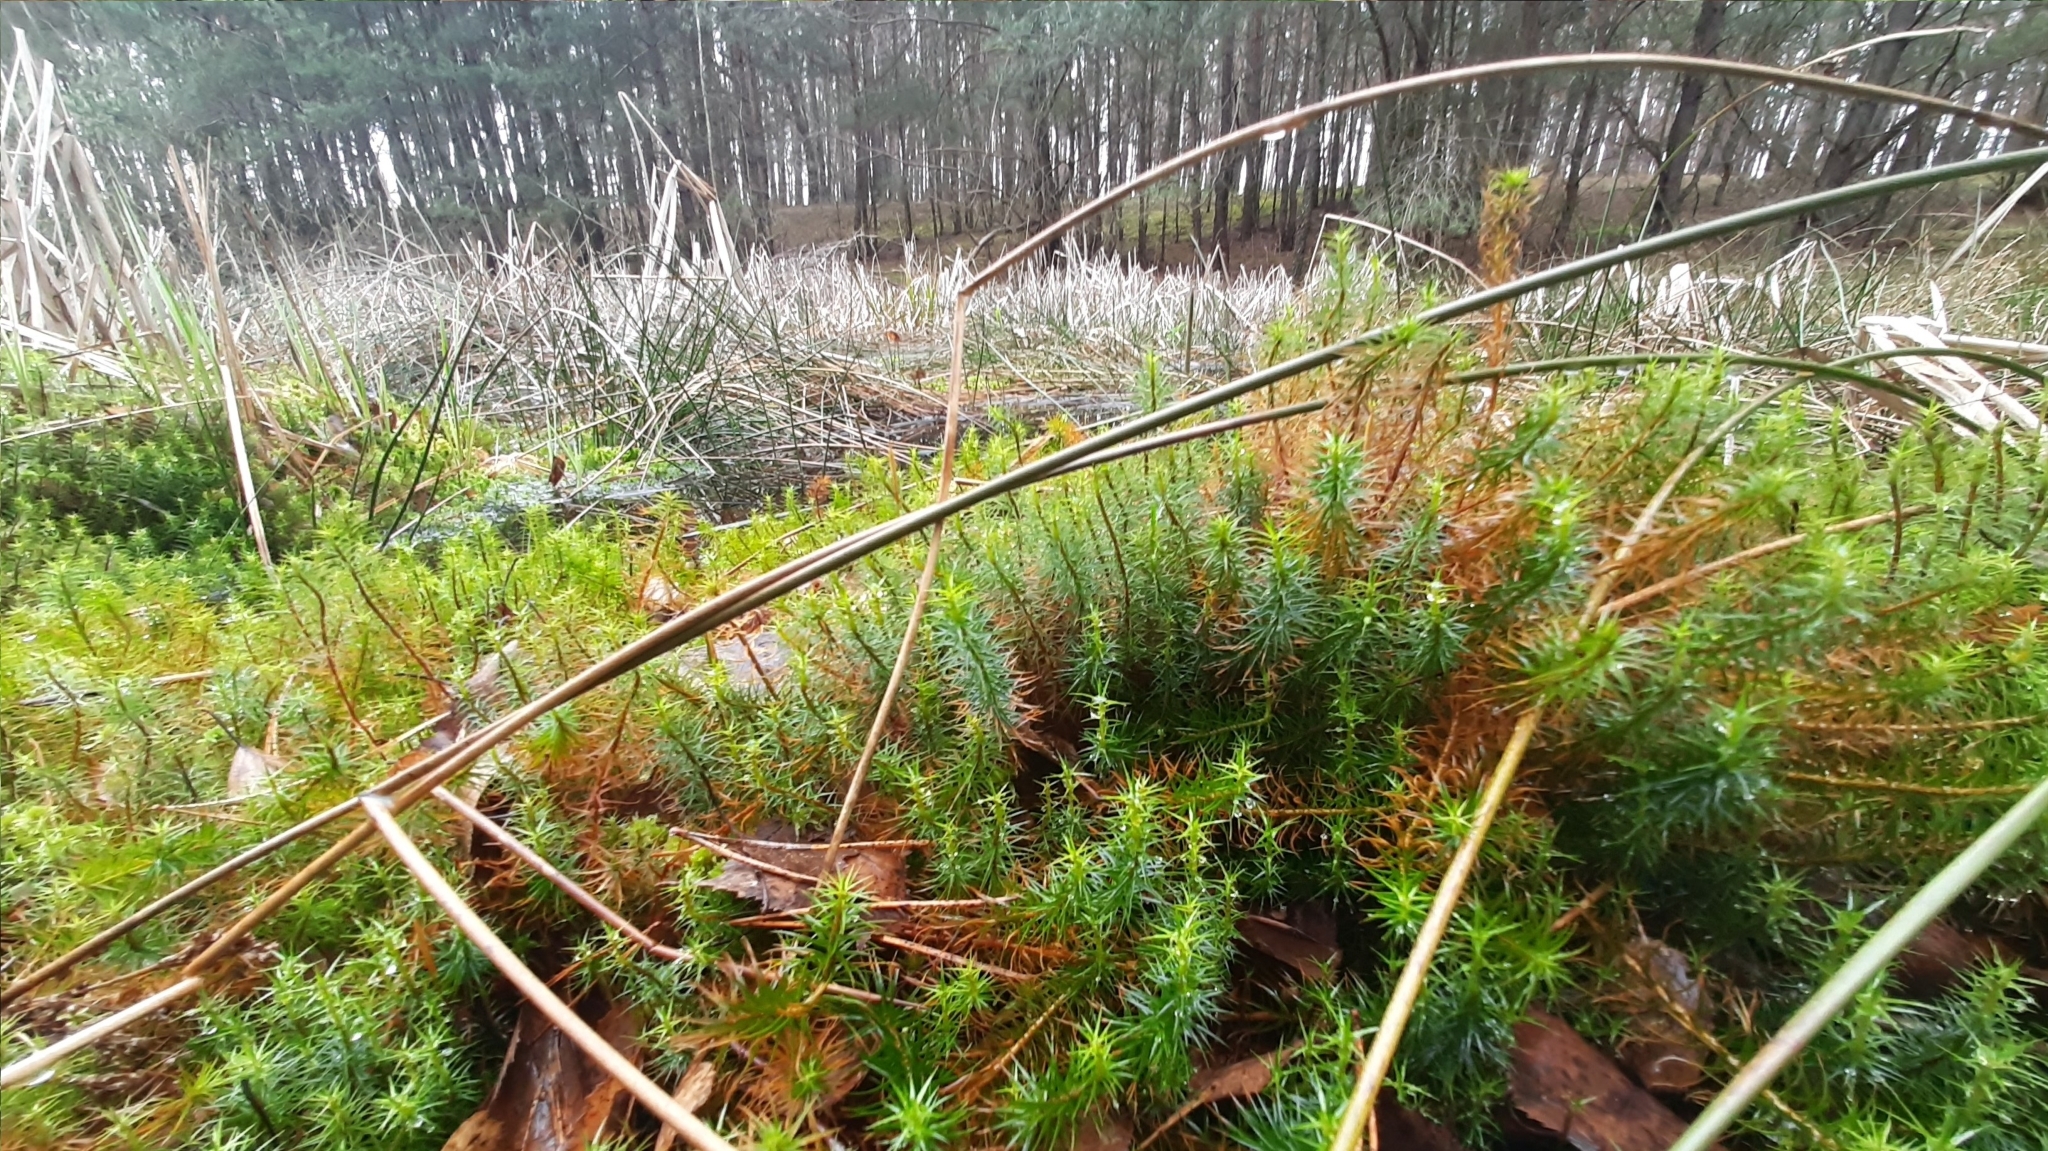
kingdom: Plantae
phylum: Bryophyta
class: Polytrichopsida
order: Polytrichales
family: Polytrichaceae
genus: Polytrichum
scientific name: Polytrichum commune
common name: Common haircap
